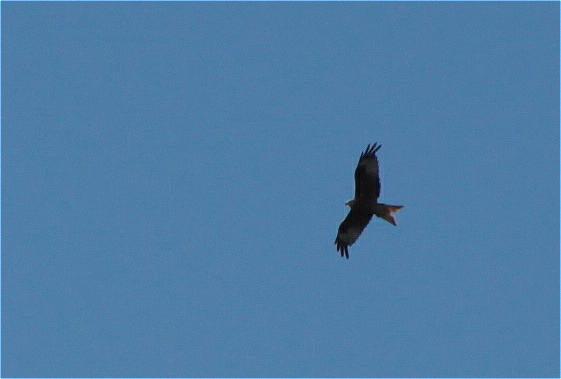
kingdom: Animalia
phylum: Chordata
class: Aves
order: Accipitriformes
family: Accipitridae
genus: Milvus
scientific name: Milvus milvus
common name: Red kite
